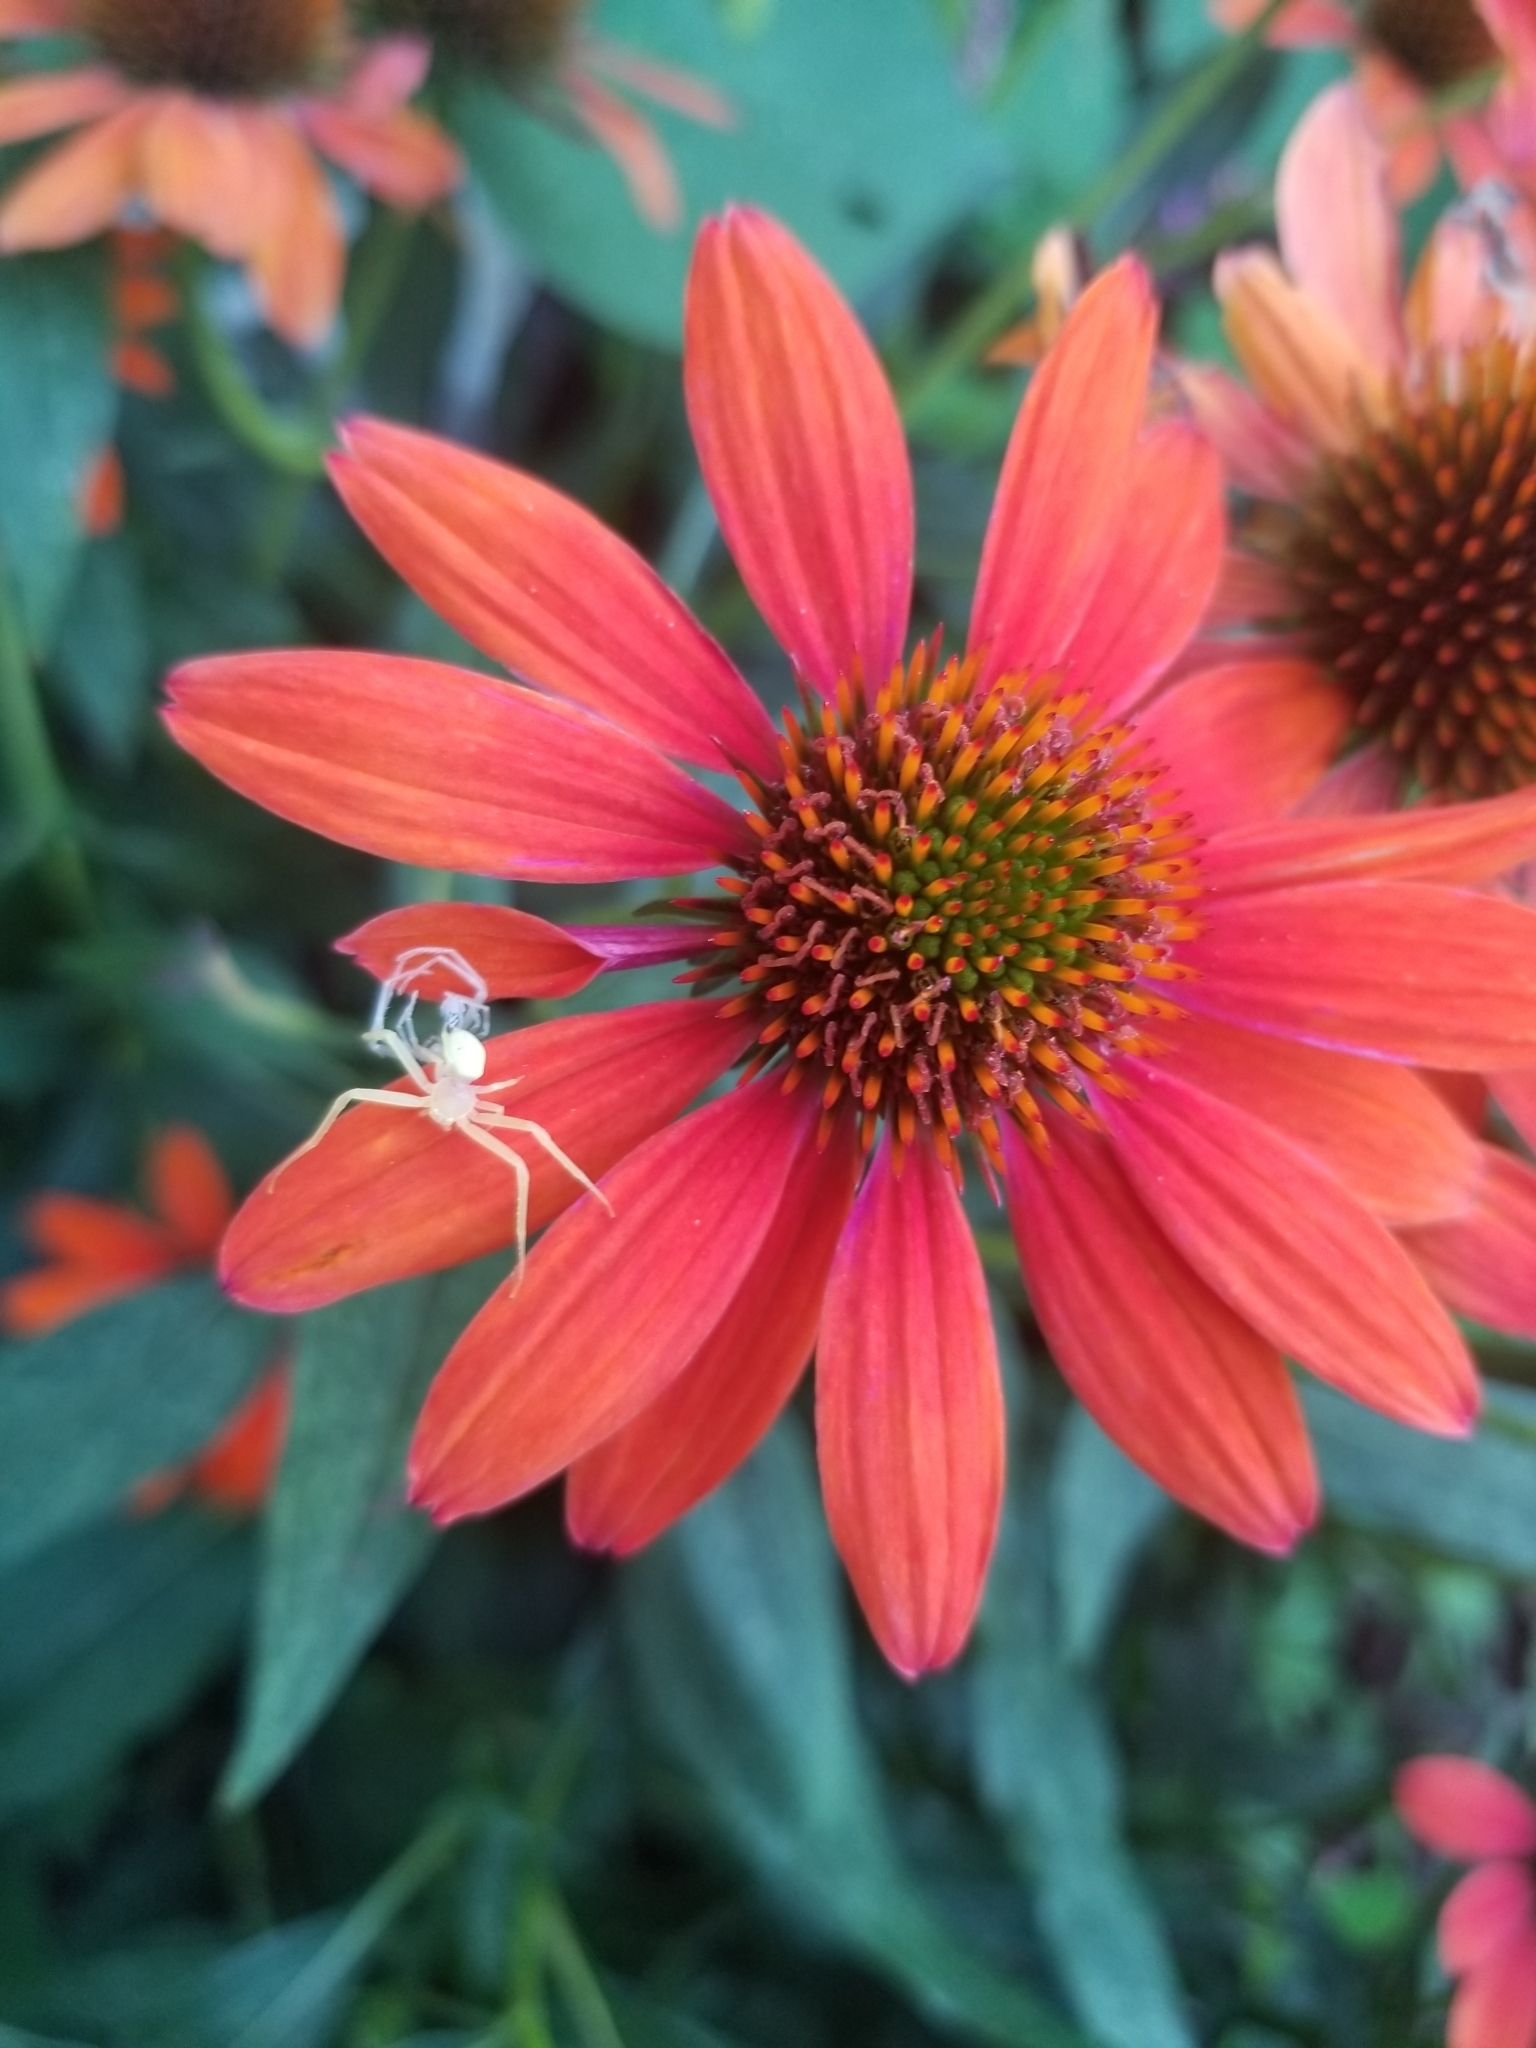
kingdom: Animalia
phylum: Arthropoda
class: Arachnida
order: Araneae
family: Thomisidae
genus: Misumessus
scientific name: Misumessus oblongus
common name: American green crab spider
